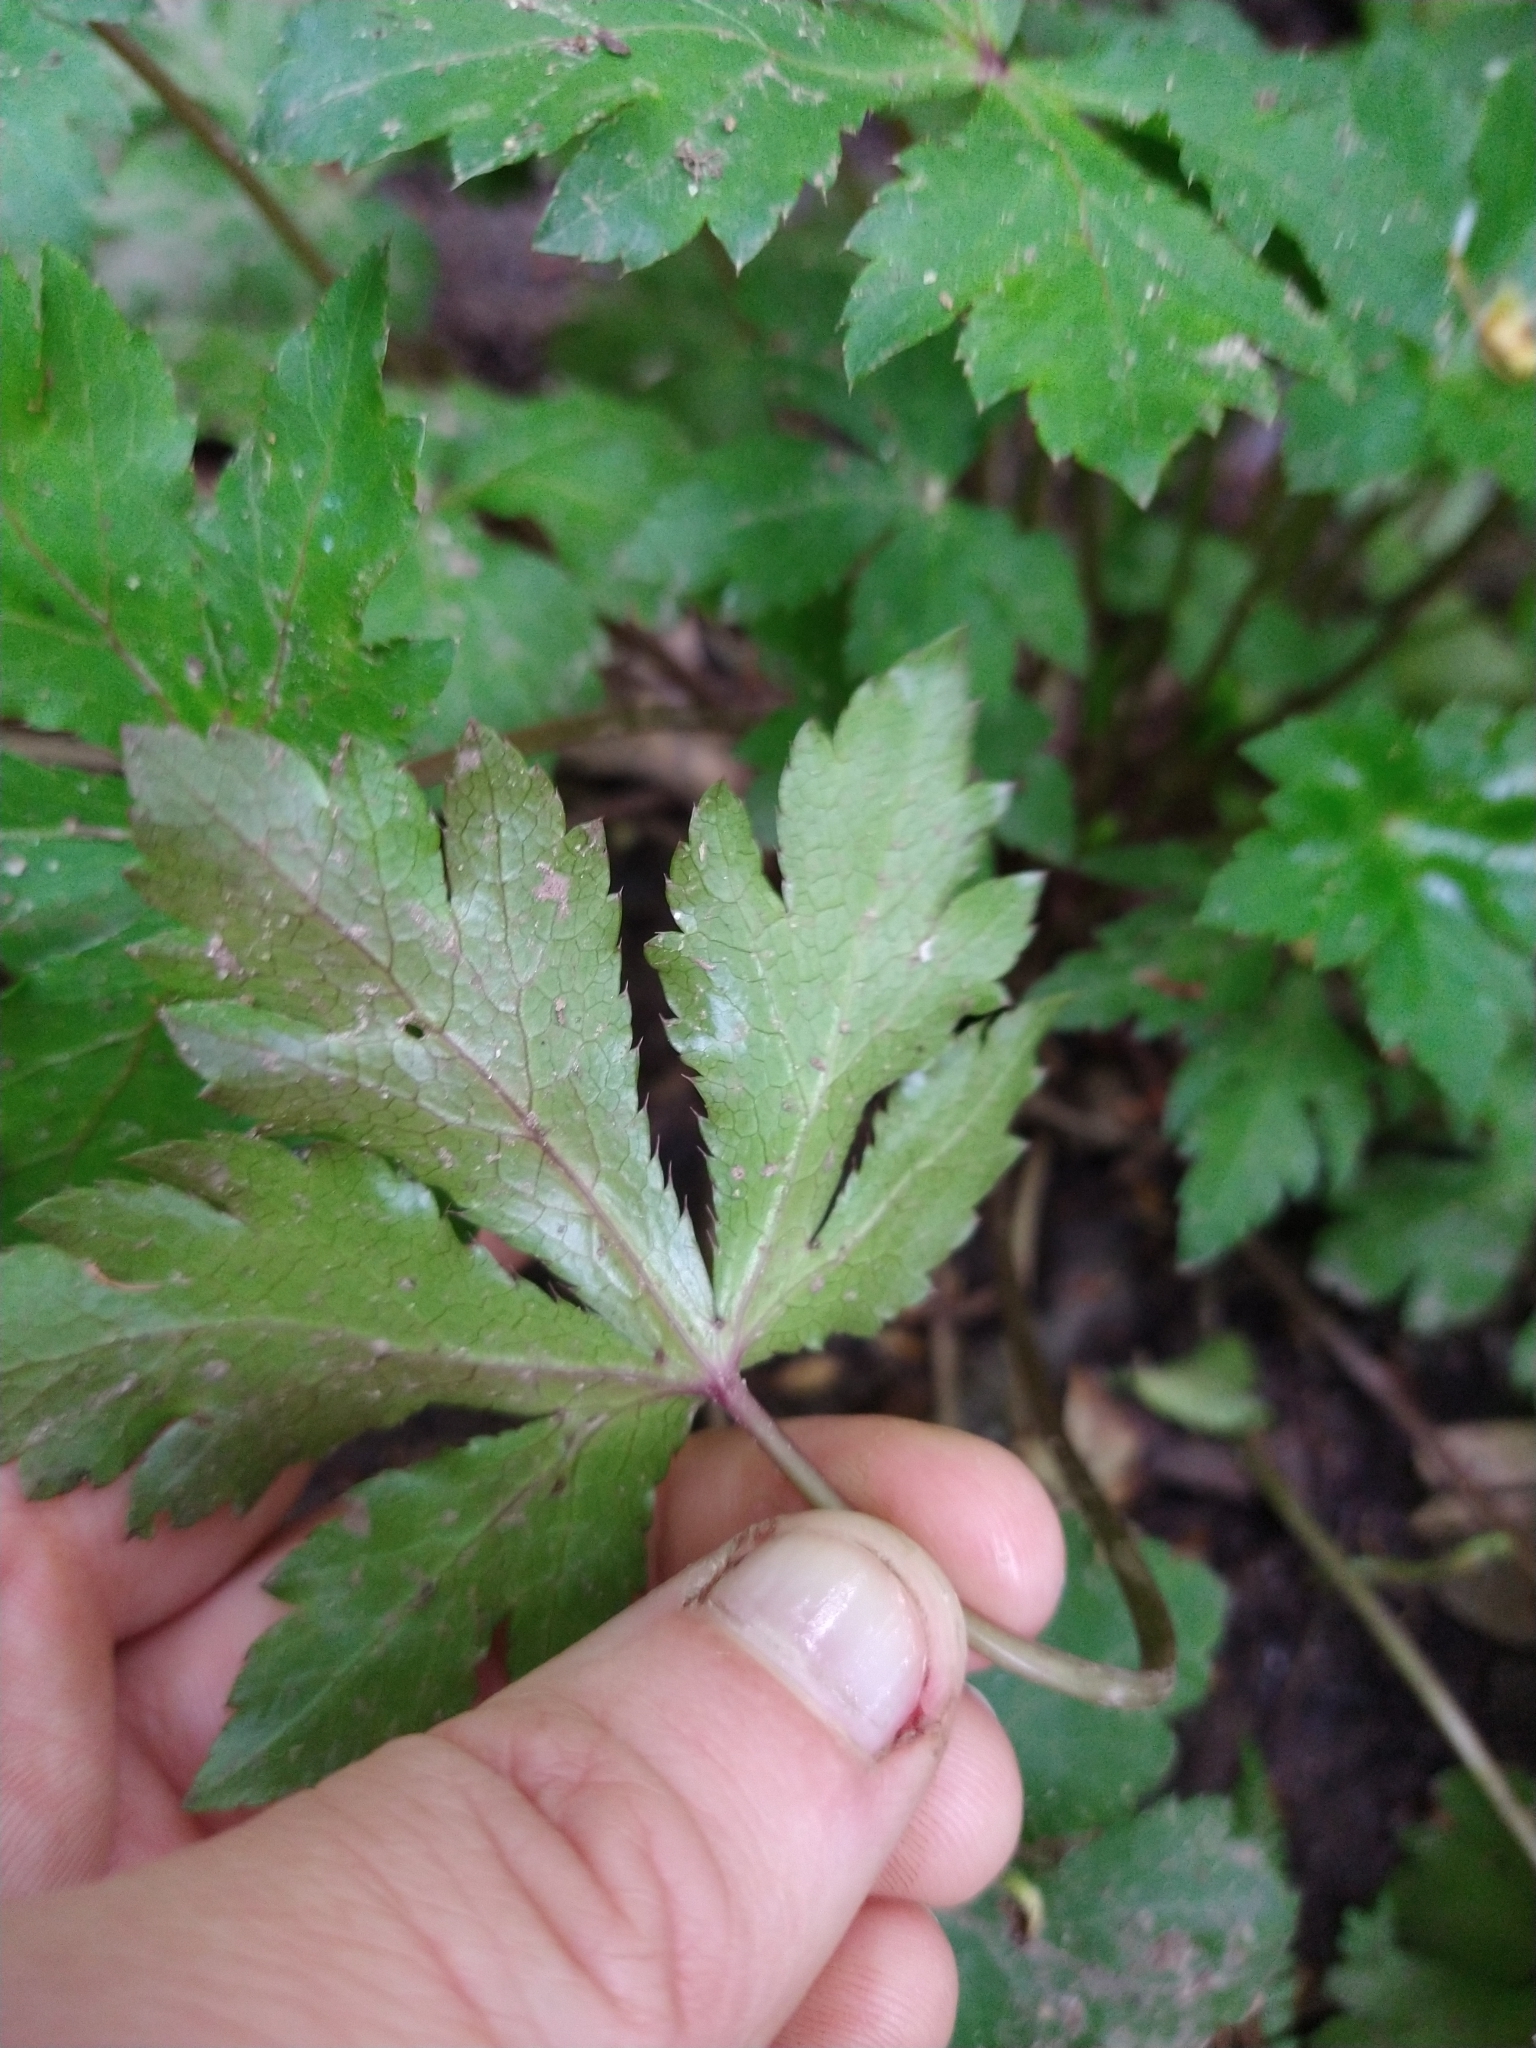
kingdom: Plantae
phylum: Tracheophyta
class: Magnoliopsida
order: Apiales
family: Apiaceae
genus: Sanicula
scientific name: Sanicula europaea
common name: Sanicle
